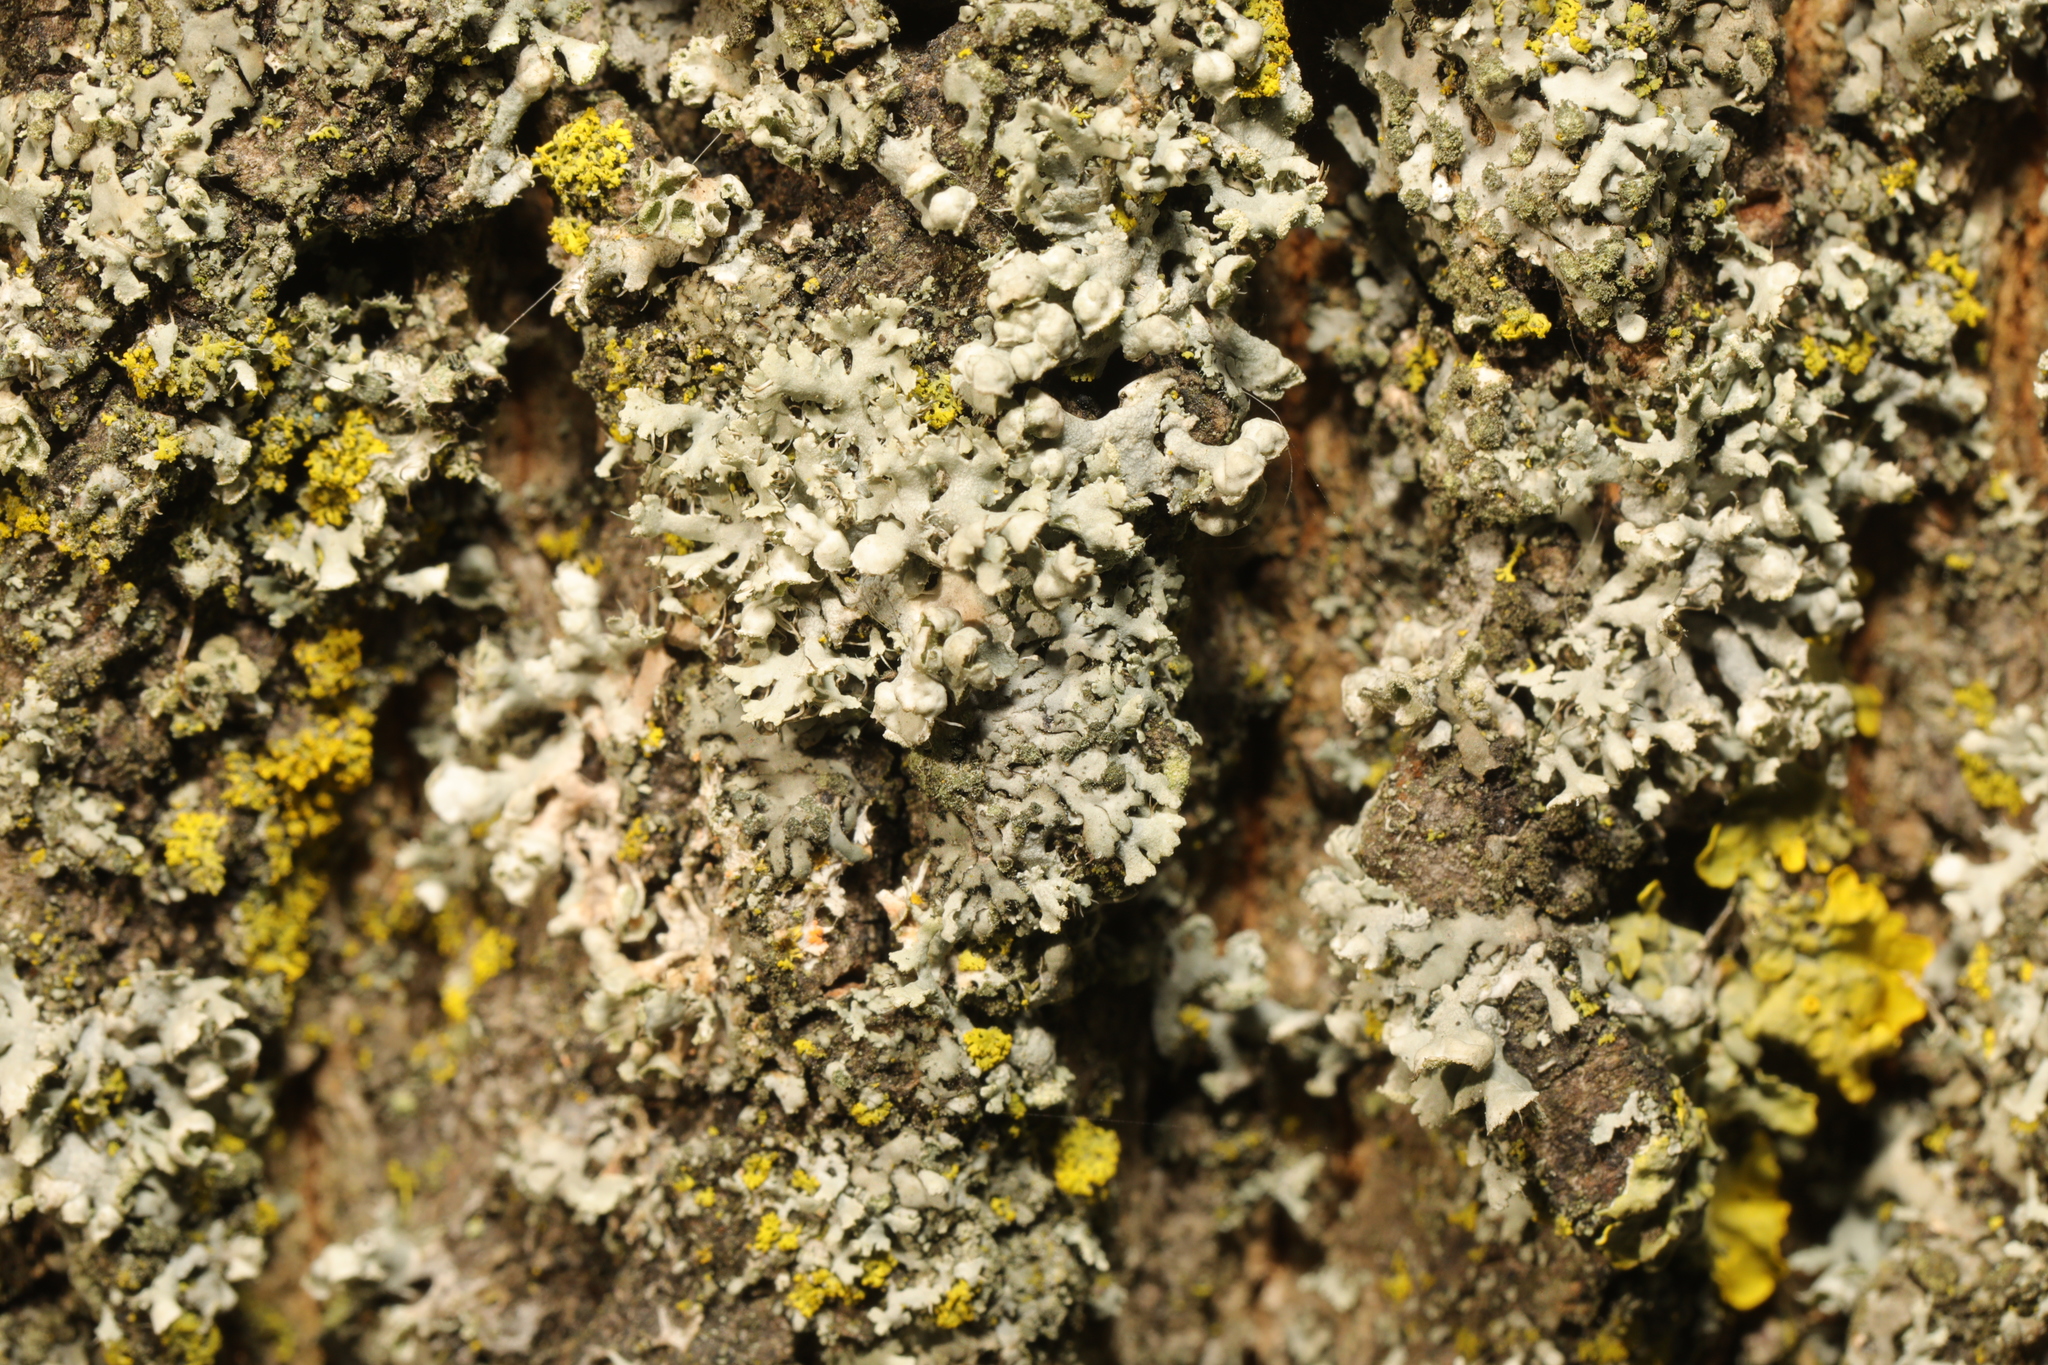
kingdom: Fungi
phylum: Ascomycota
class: Lecanoromycetes
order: Caliciales
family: Physciaceae
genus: Physcia
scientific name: Physcia adscendens
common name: Hooded rosette lichen
